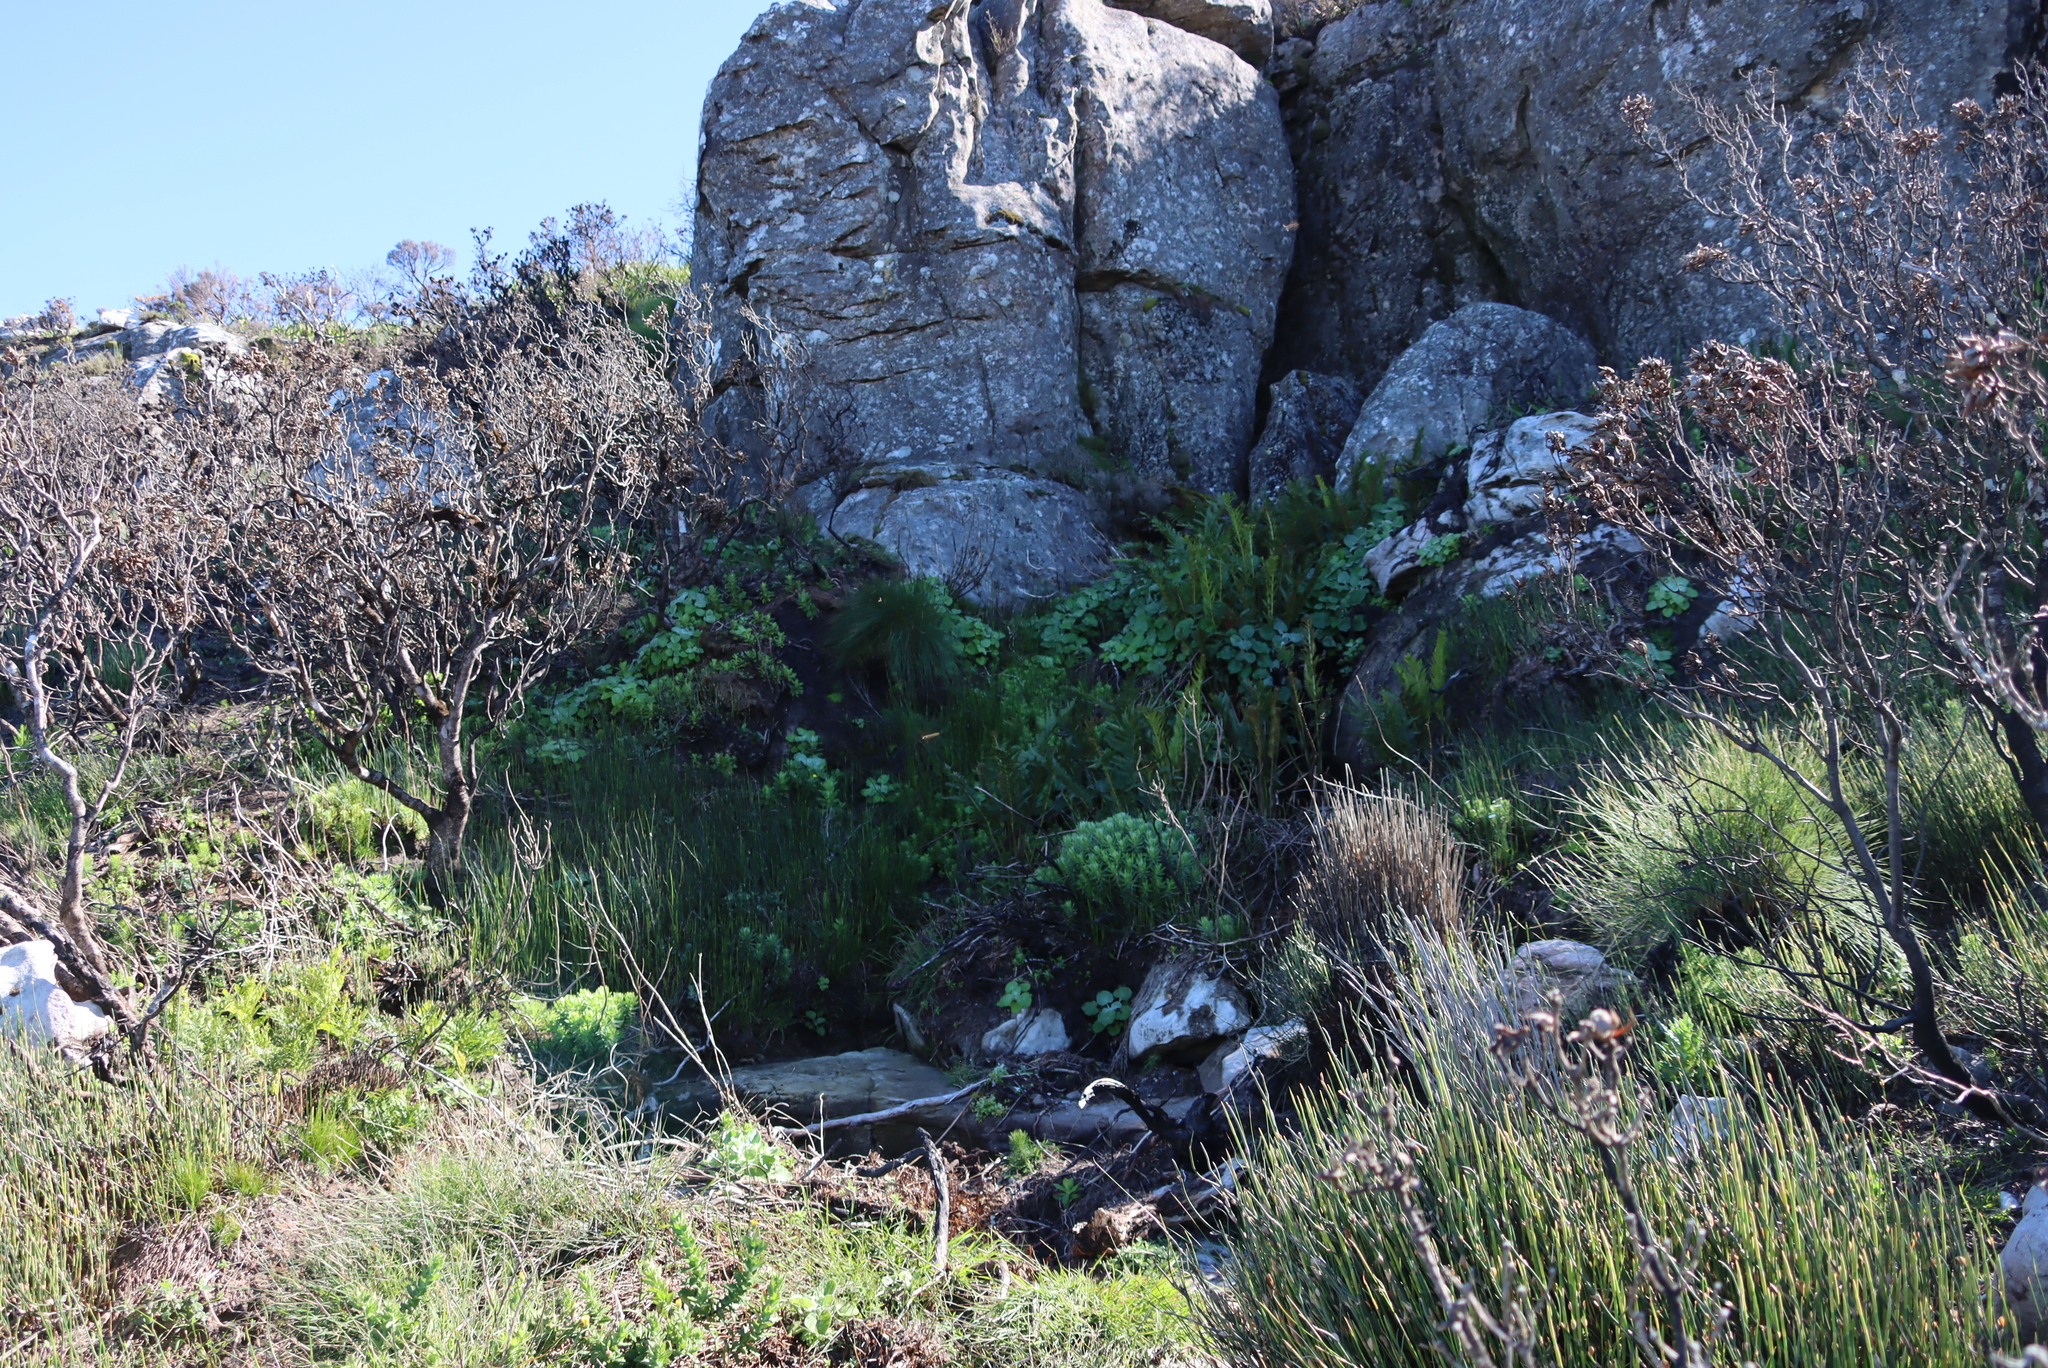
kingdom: Plantae
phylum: Tracheophyta
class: Magnoliopsida
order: Asterales
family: Asteraceae
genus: Senecio
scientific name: Senecio verbascifolius
